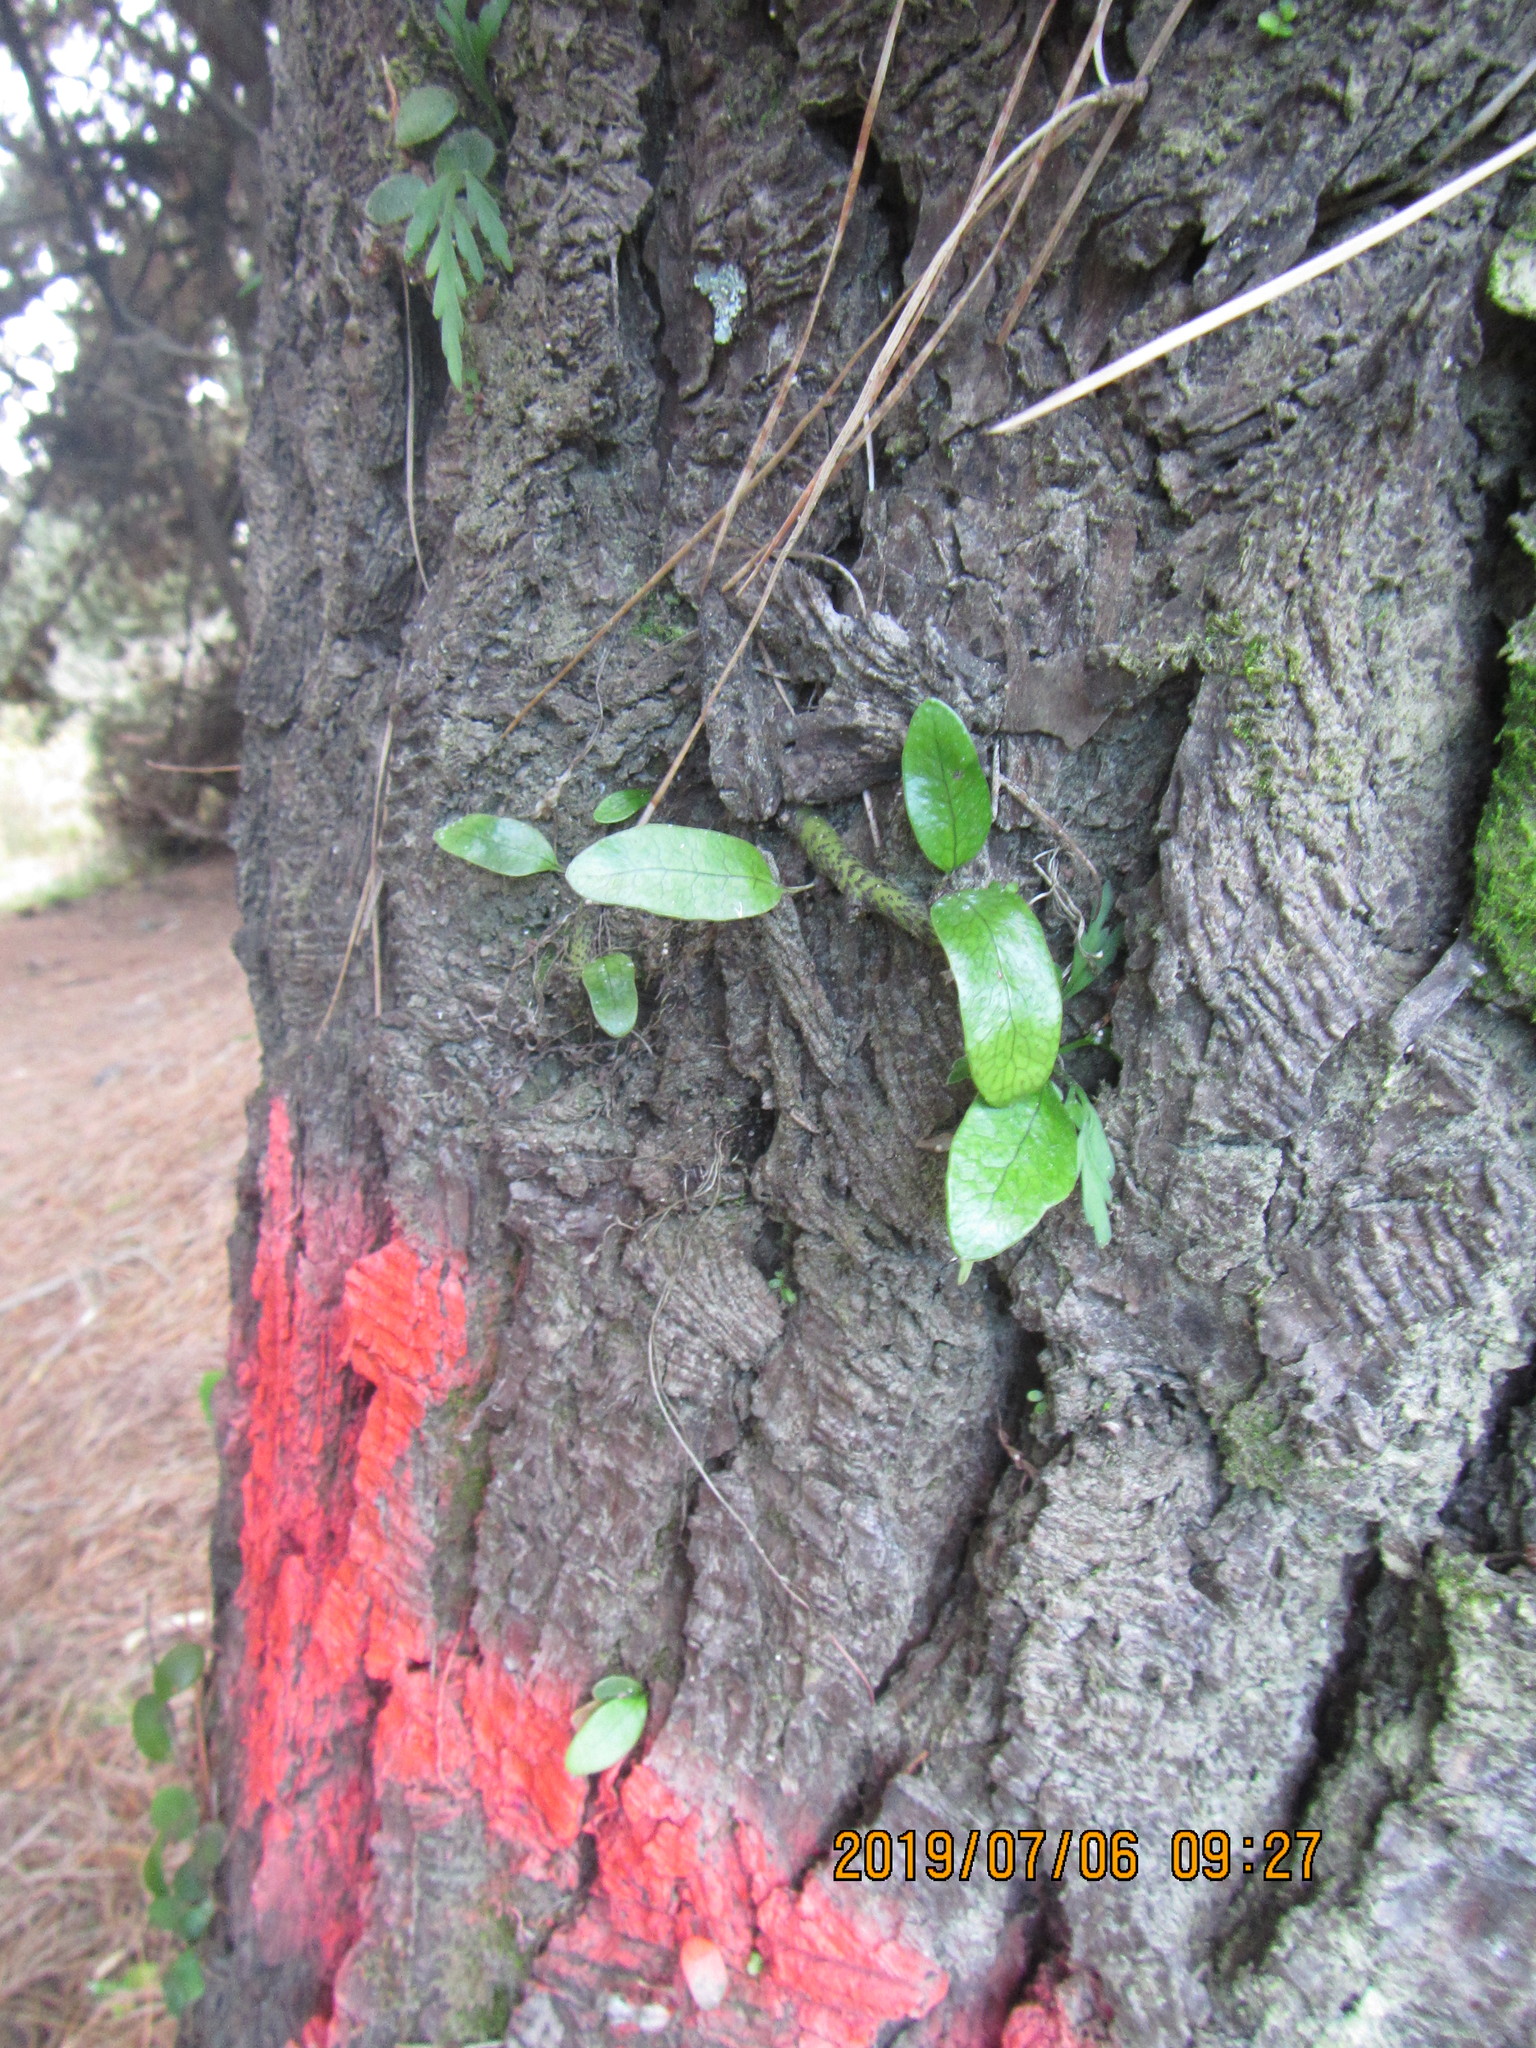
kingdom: Plantae
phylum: Tracheophyta
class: Polypodiopsida
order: Polypodiales
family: Polypodiaceae
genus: Lecanopteris
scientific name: Lecanopteris pustulata
